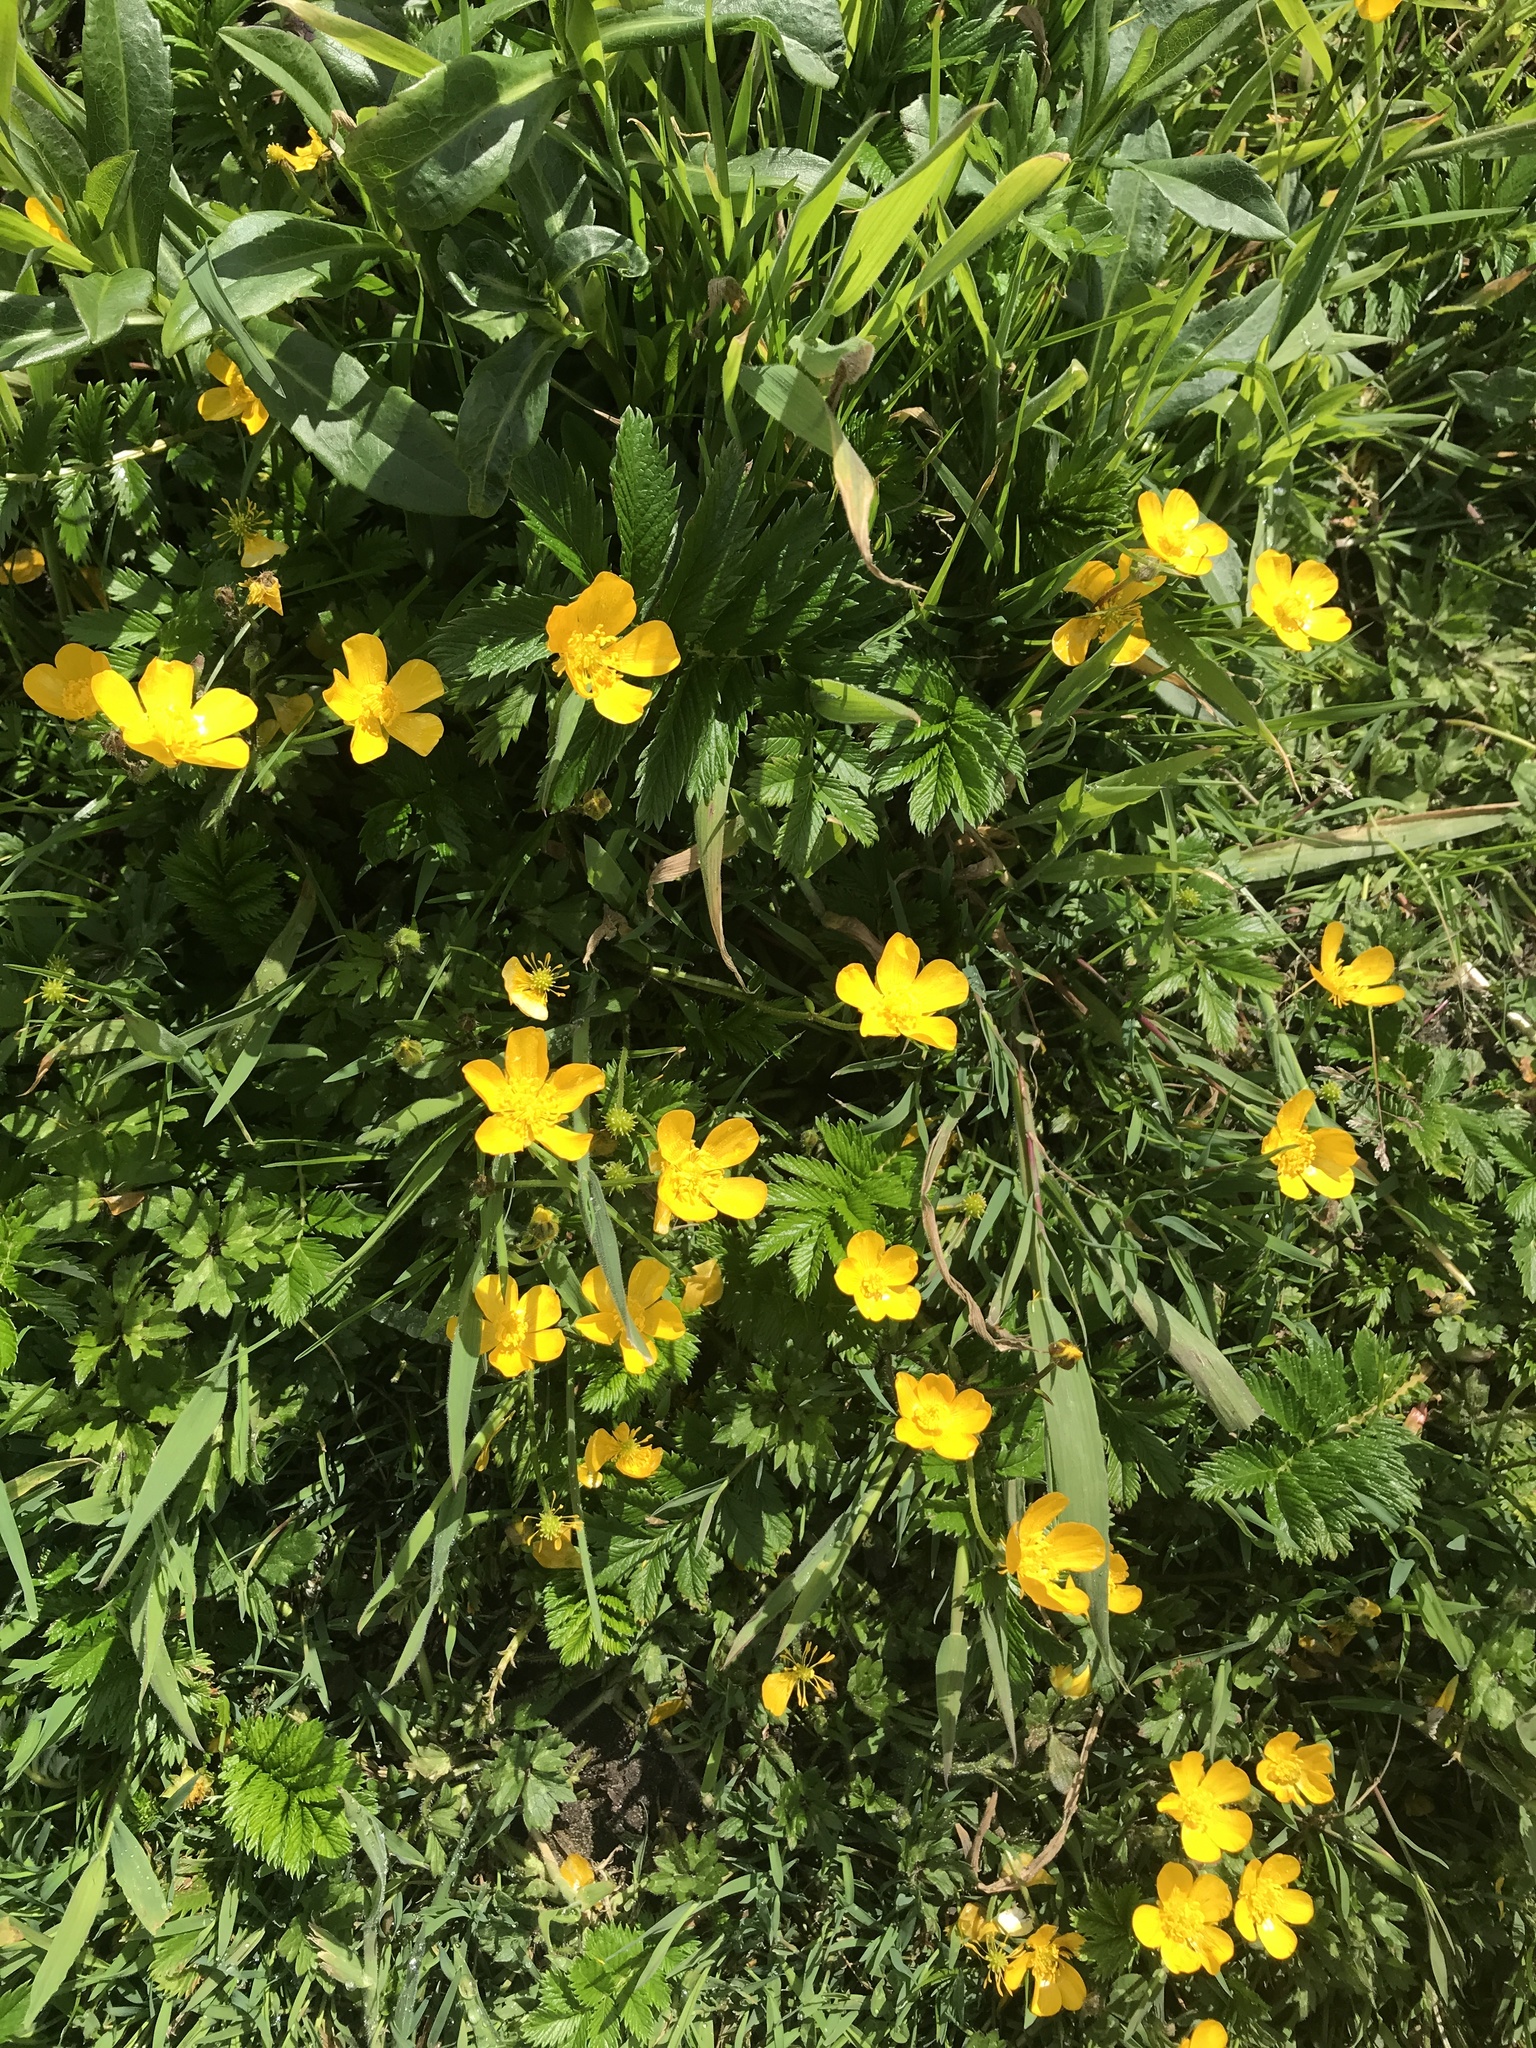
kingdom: Plantae
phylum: Tracheophyta
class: Magnoliopsida
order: Ranunculales
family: Ranunculaceae
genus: Ranunculus
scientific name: Ranunculus repens
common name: Creeping buttercup
